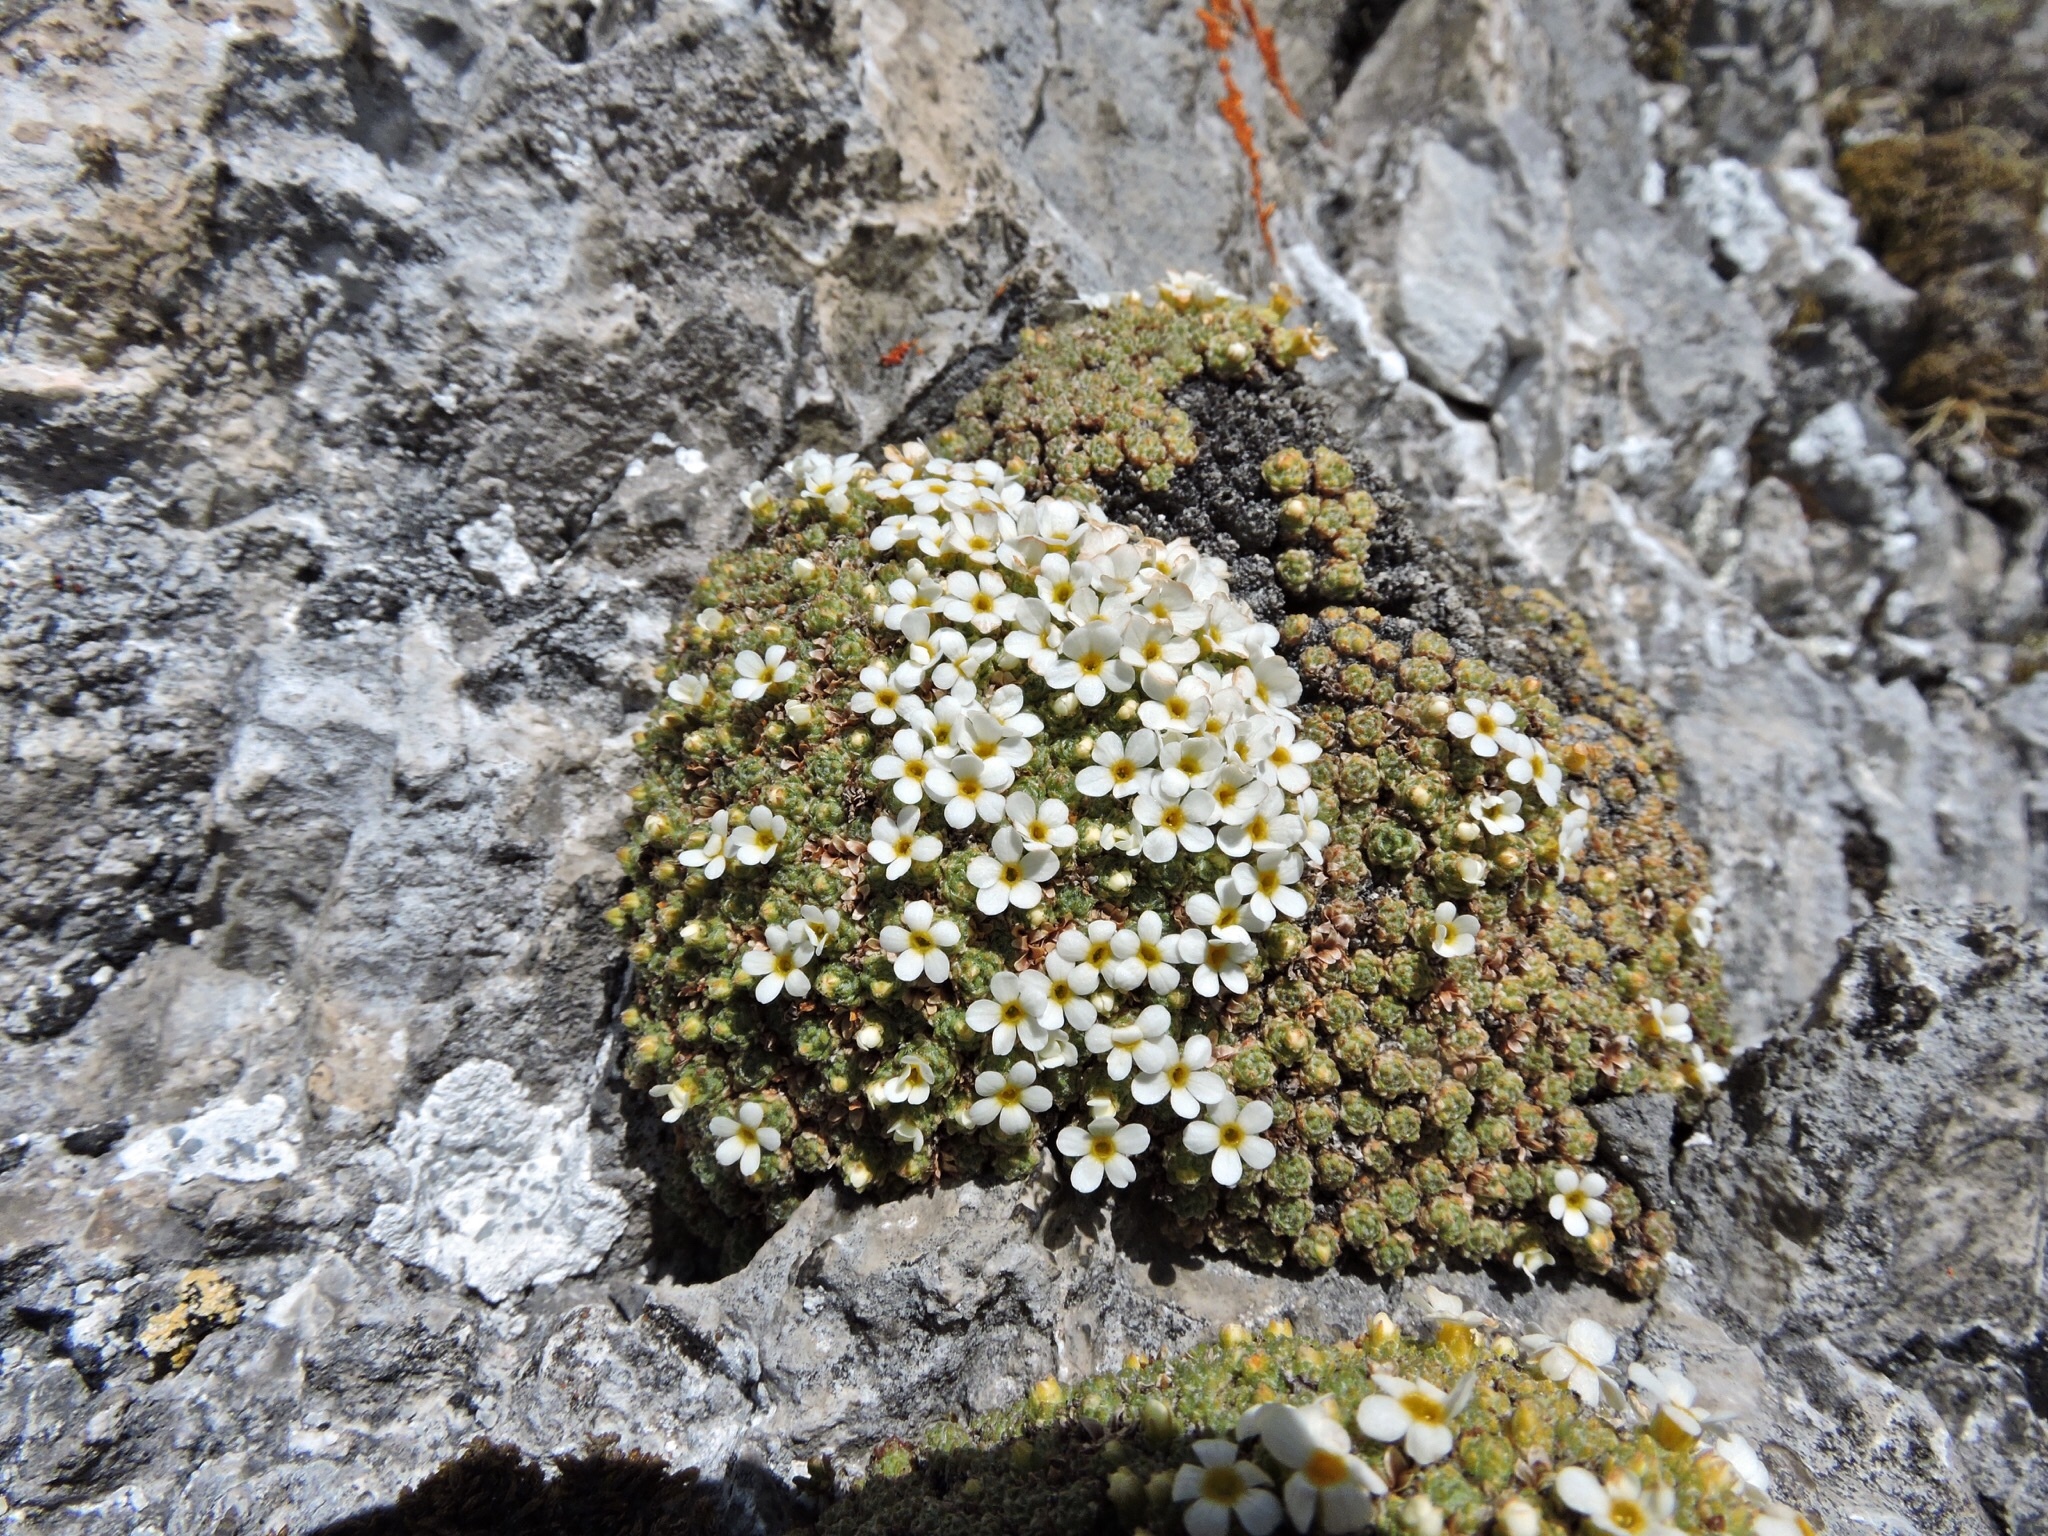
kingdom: Plantae
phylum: Tracheophyta
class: Magnoliopsida
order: Ericales
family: Primulaceae
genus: Androsace
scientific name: Androsace helvetica
